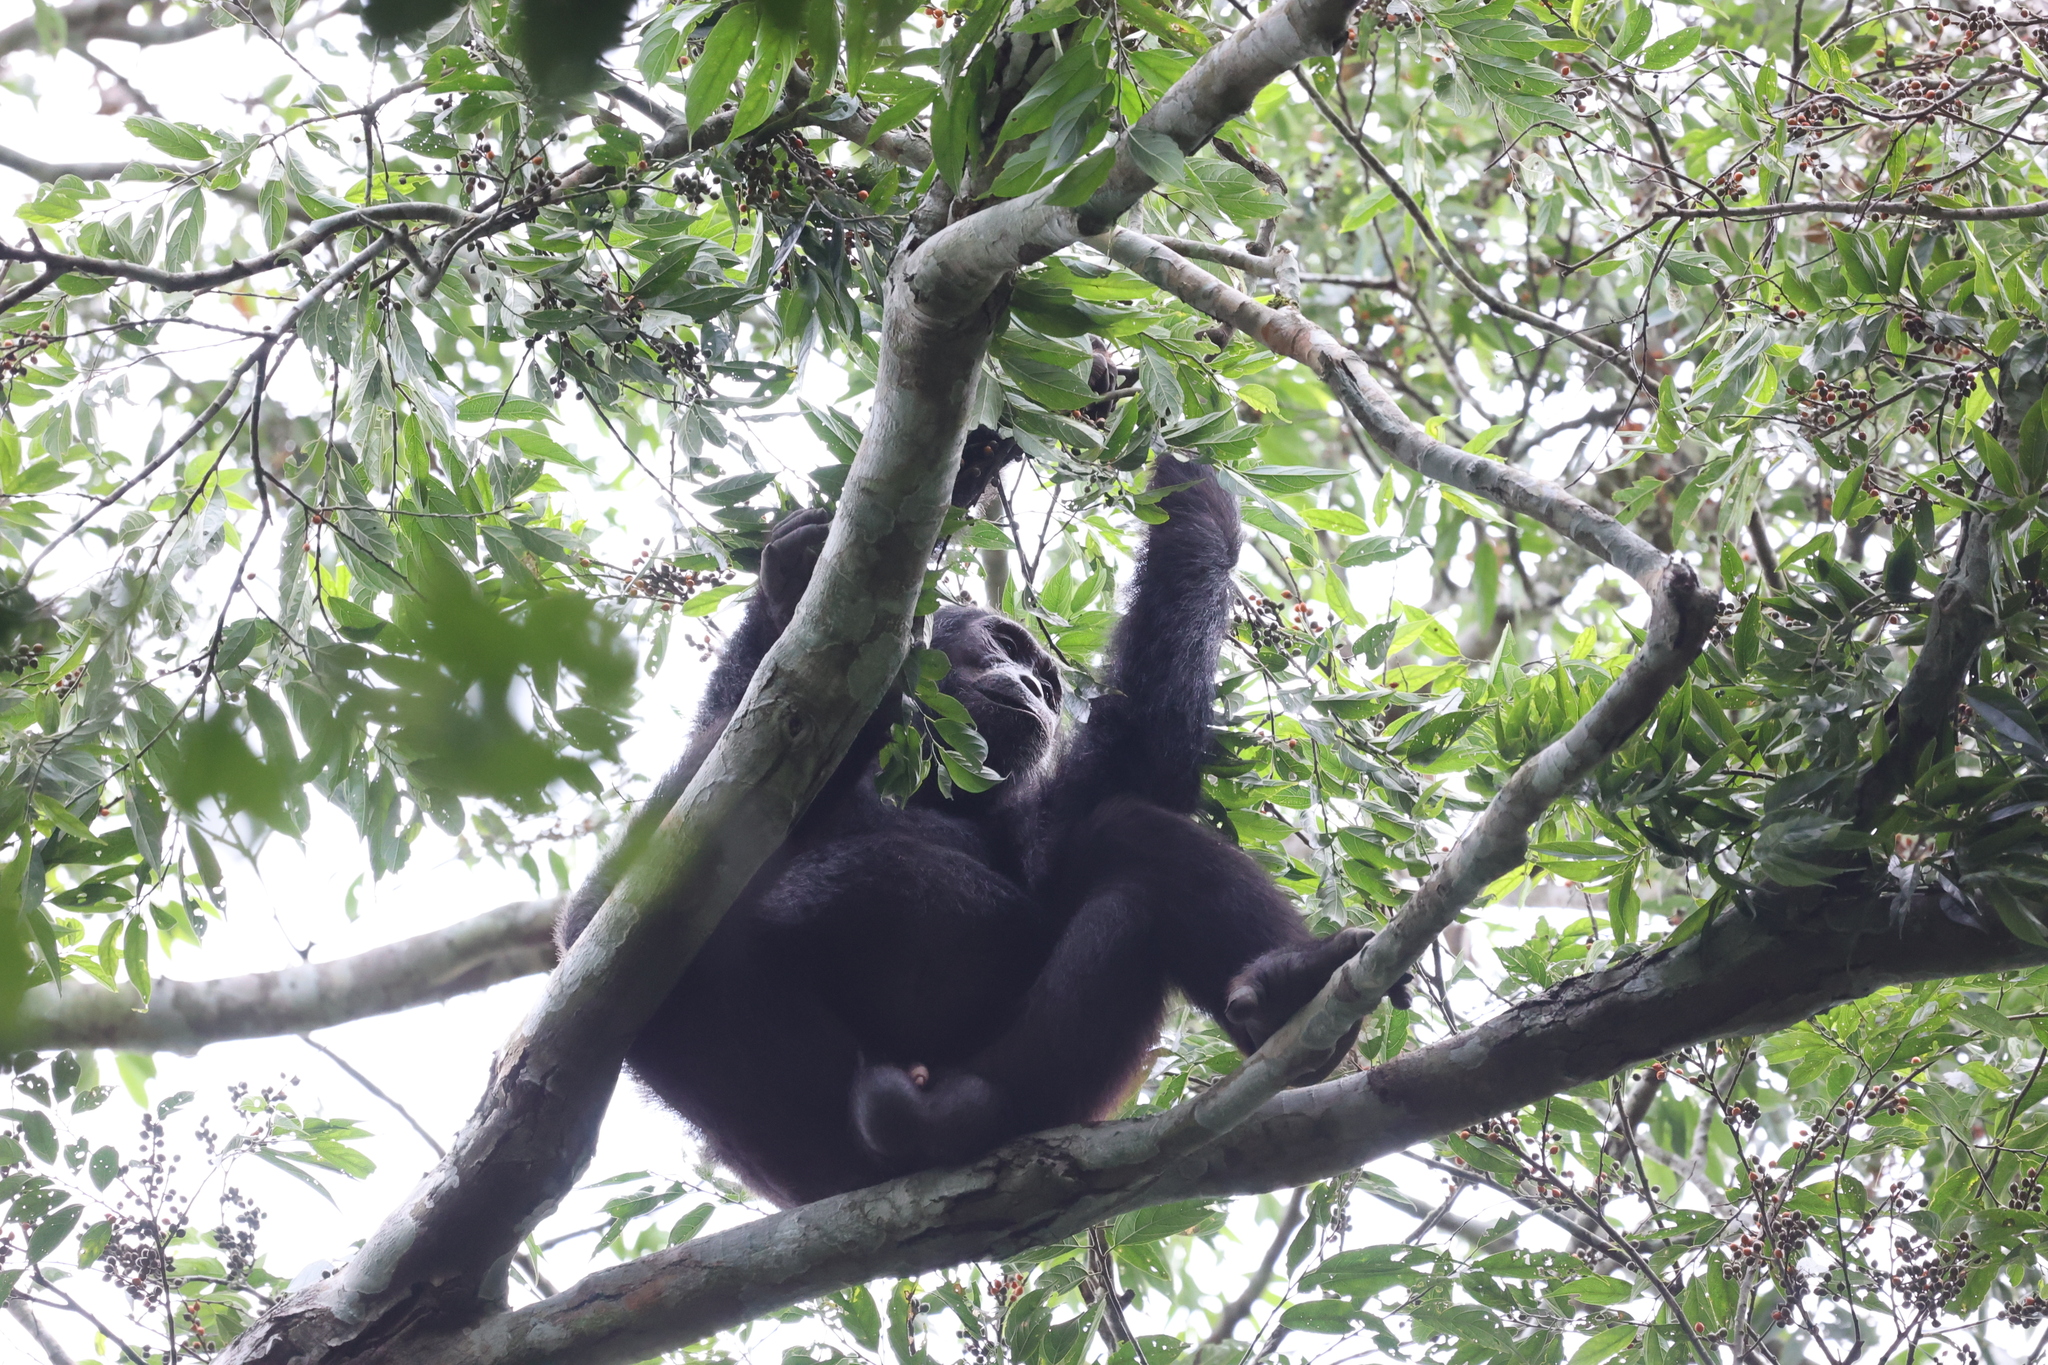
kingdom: Animalia
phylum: Chordata
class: Mammalia
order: Primates
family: Hominidae
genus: Pan
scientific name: Pan troglodytes
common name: Chimpanzee
